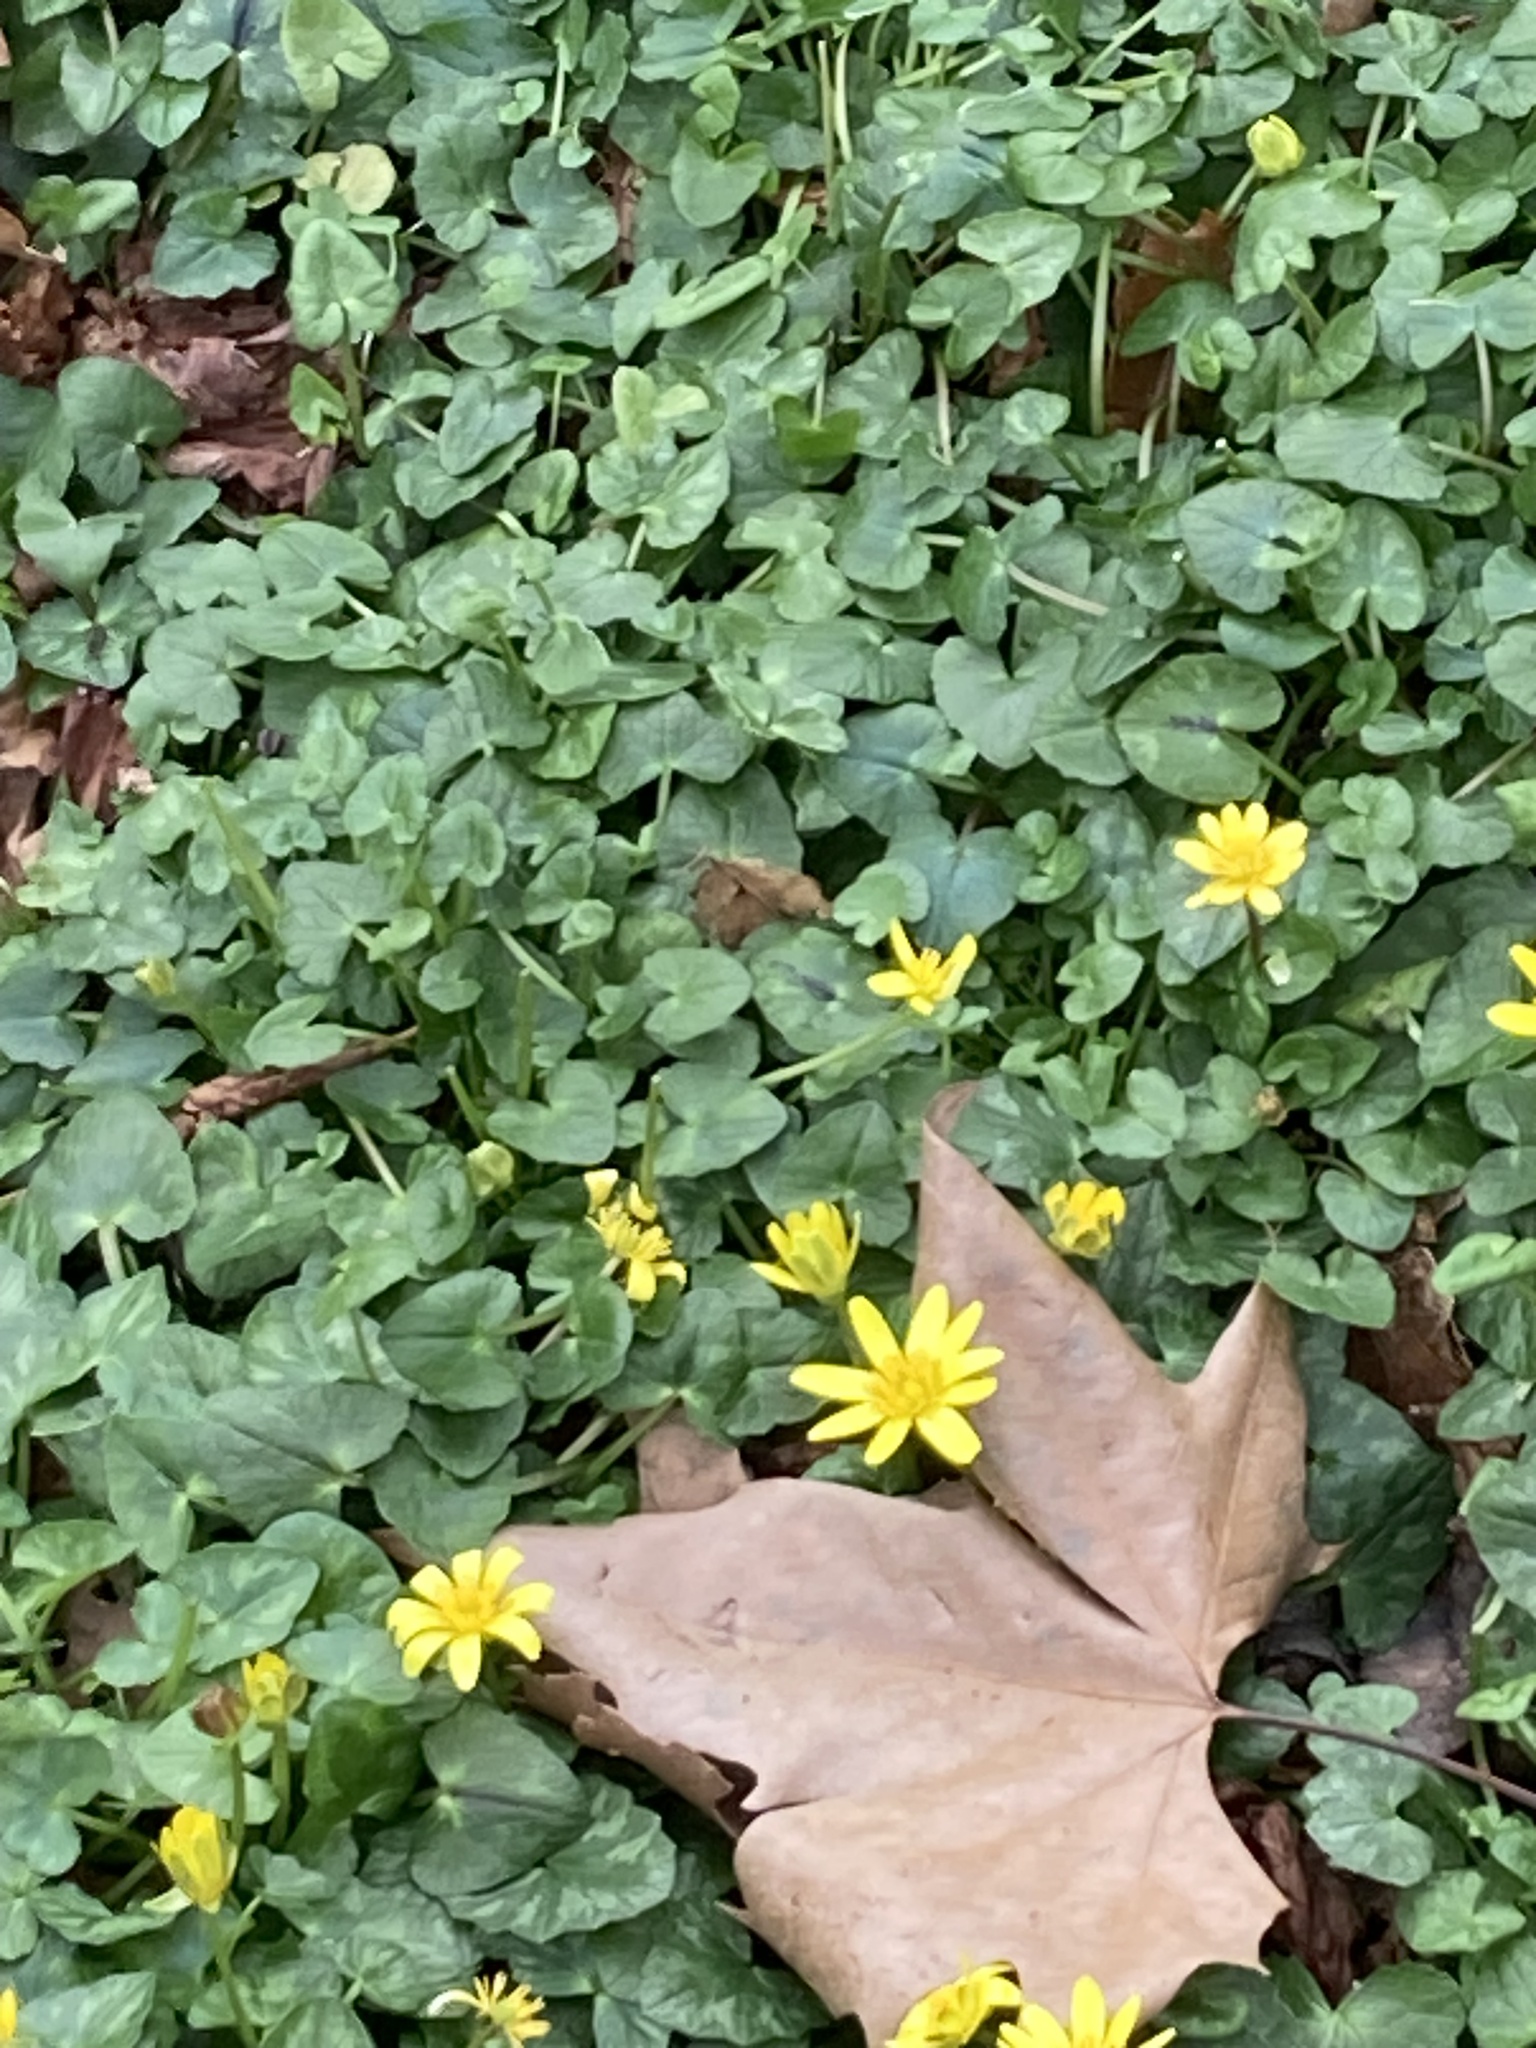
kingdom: Plantae
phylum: Tracheophyta
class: Magnoliopsida
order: Ranunculales
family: Ranunculaceae
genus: Ficaria
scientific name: Ficaria verna
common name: Lesser celandine
